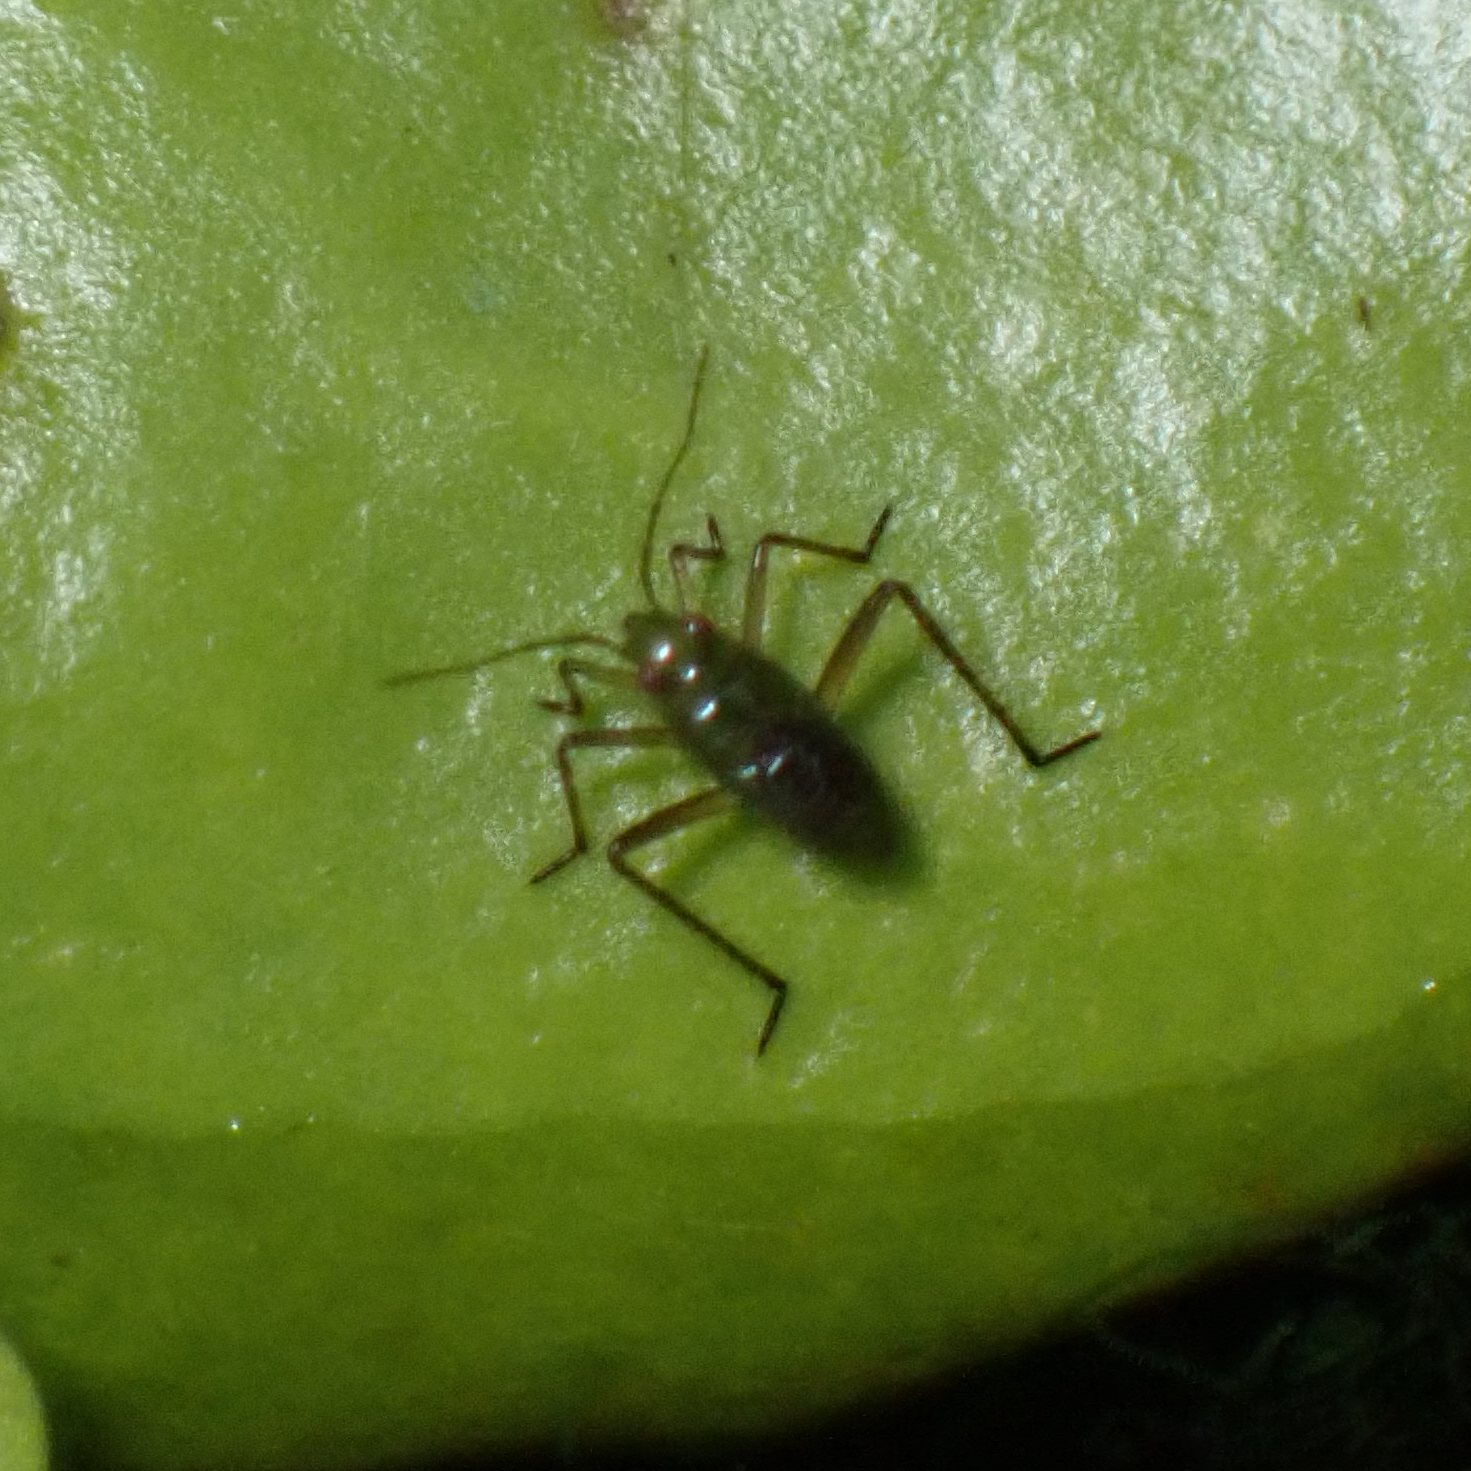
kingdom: Animalia
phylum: Arthropoda
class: Insecta
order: Hemiptera
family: Mesoveliidae
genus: Mesovelia
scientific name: Mesovelia
